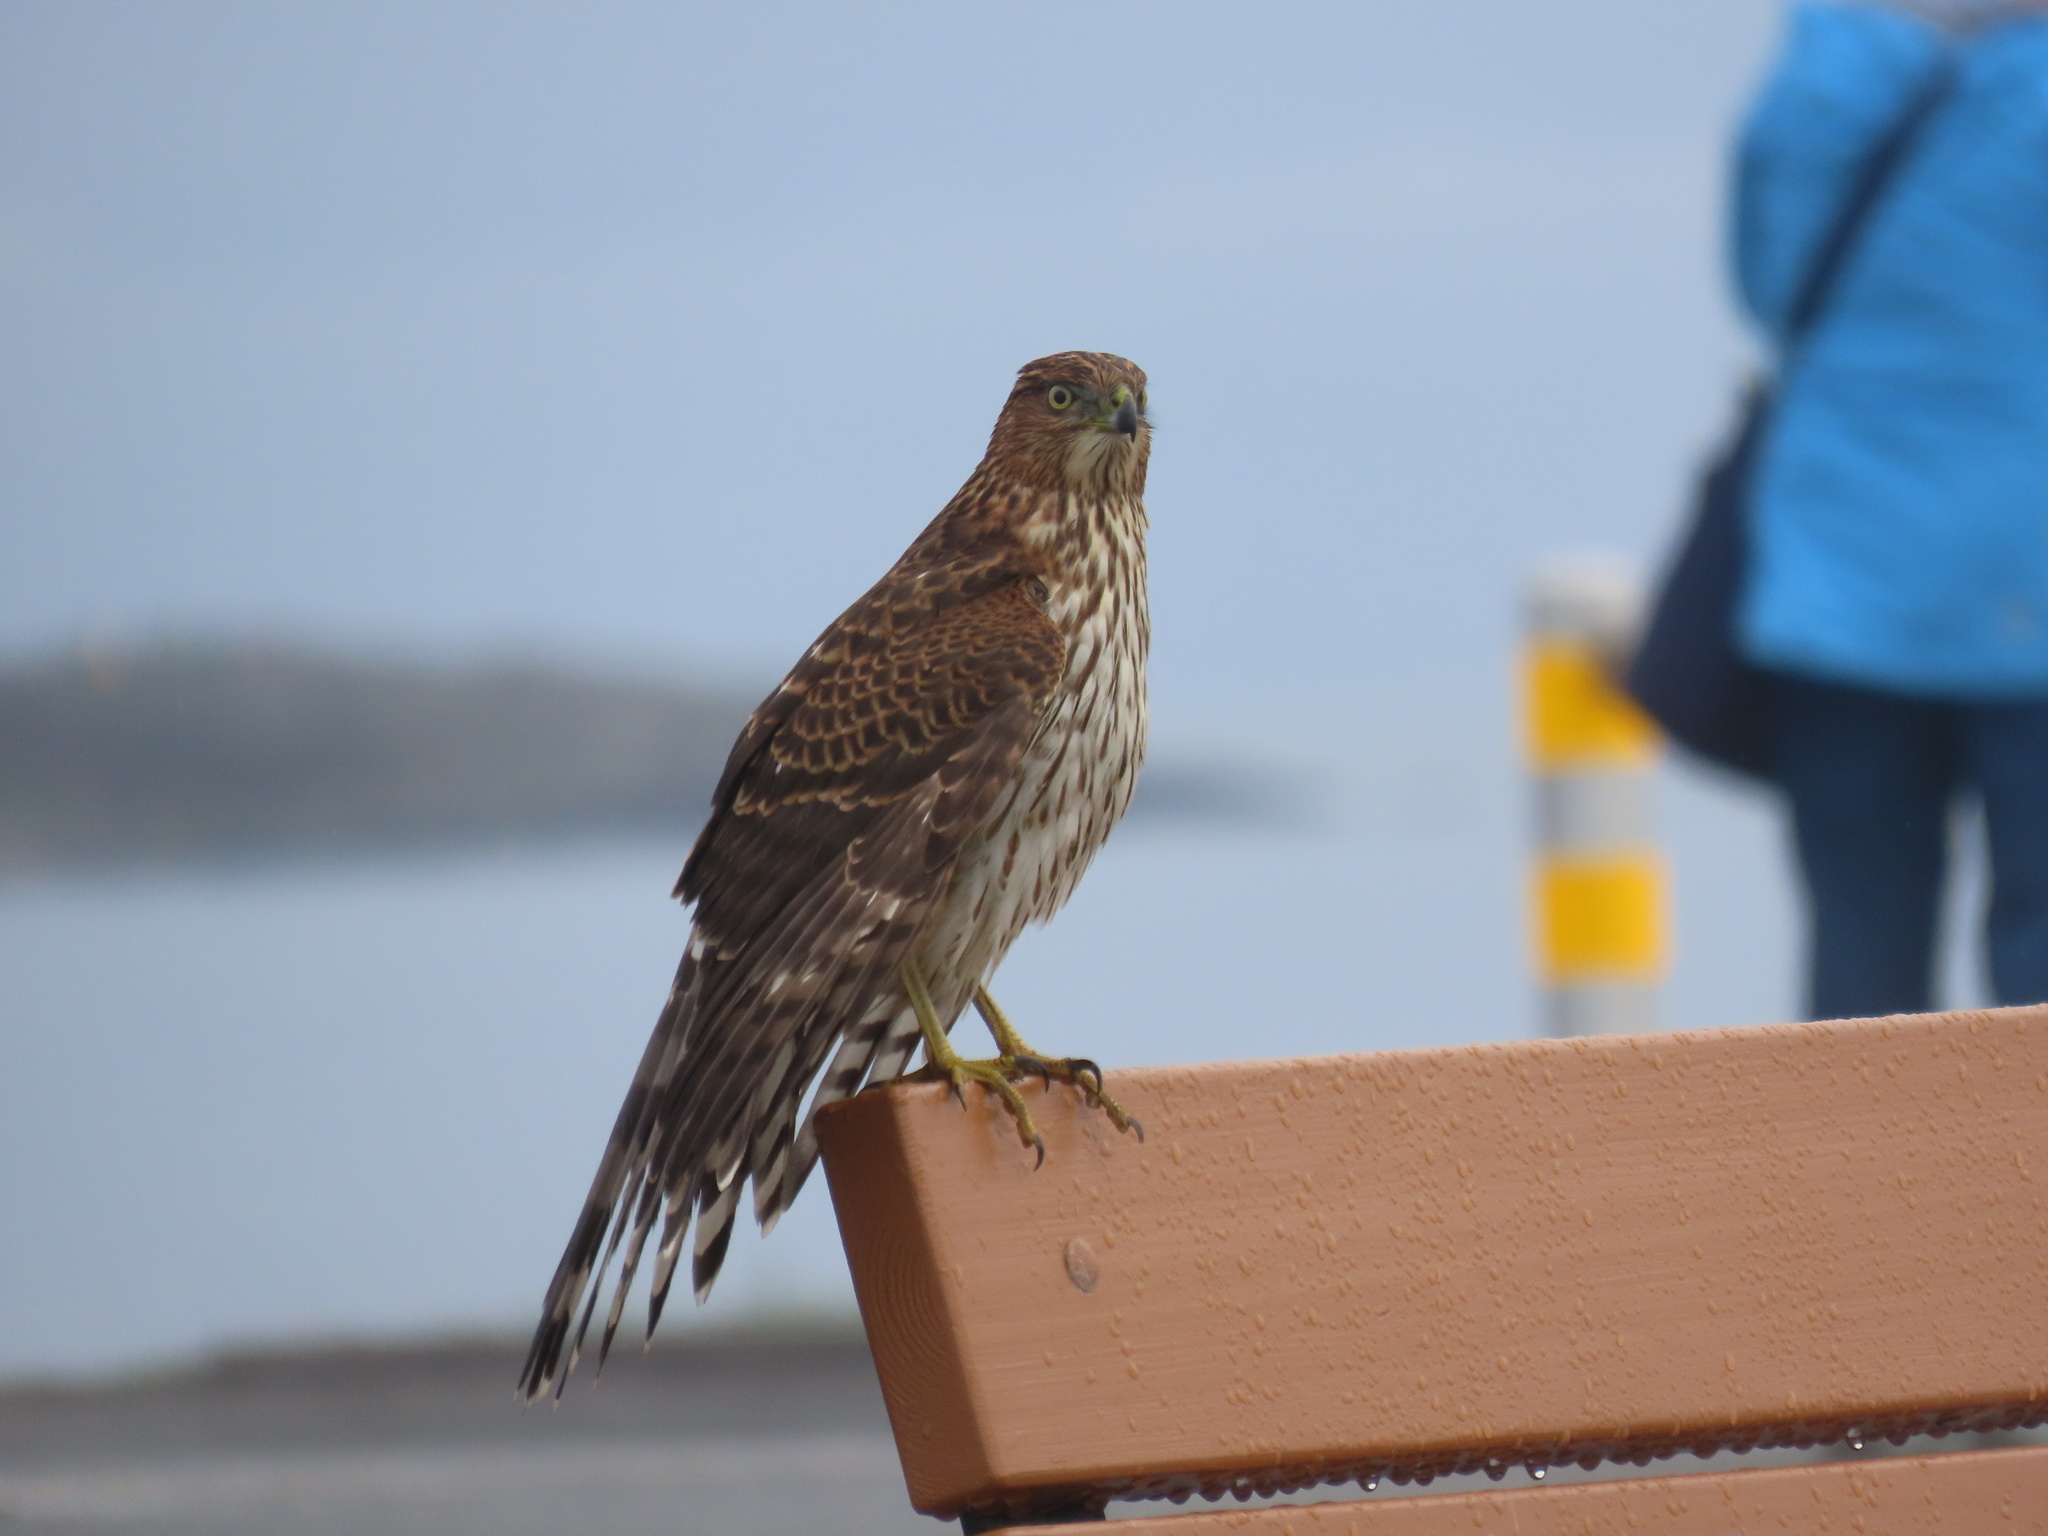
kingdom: Animalia
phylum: Chordata
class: Aves
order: Accipitriformes
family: Accipitridae
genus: Accipiter
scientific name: Accipiter cooperii
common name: Cooper's hawk
